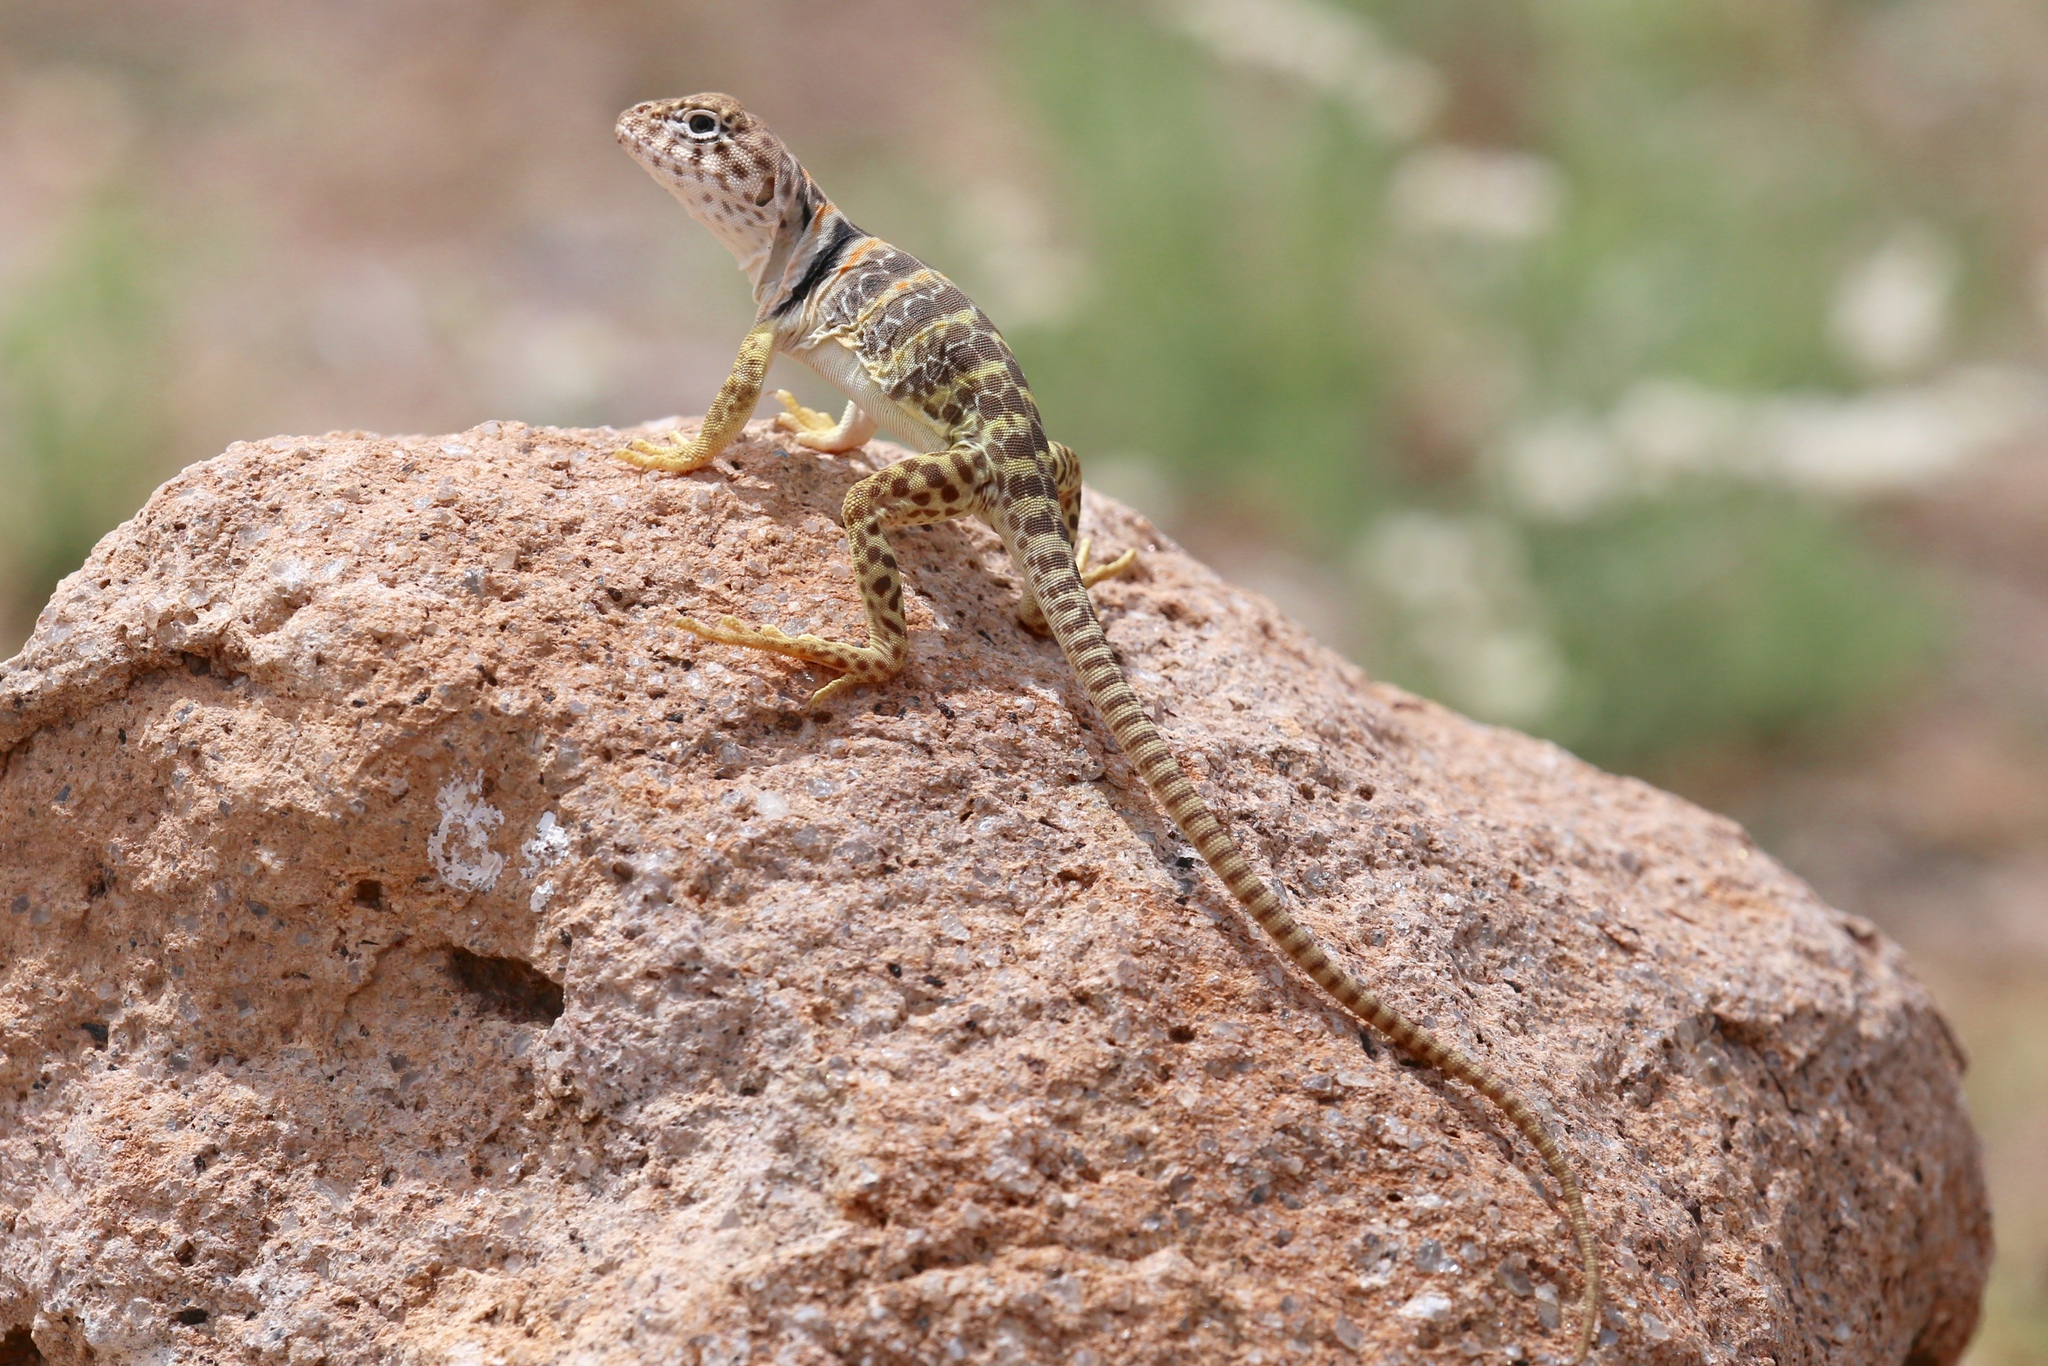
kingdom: Animalia
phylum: Chordata
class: Squamata
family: Crotaphytidae
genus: Crotaphytus
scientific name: Crotaphytus collaris
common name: Collared lizard
